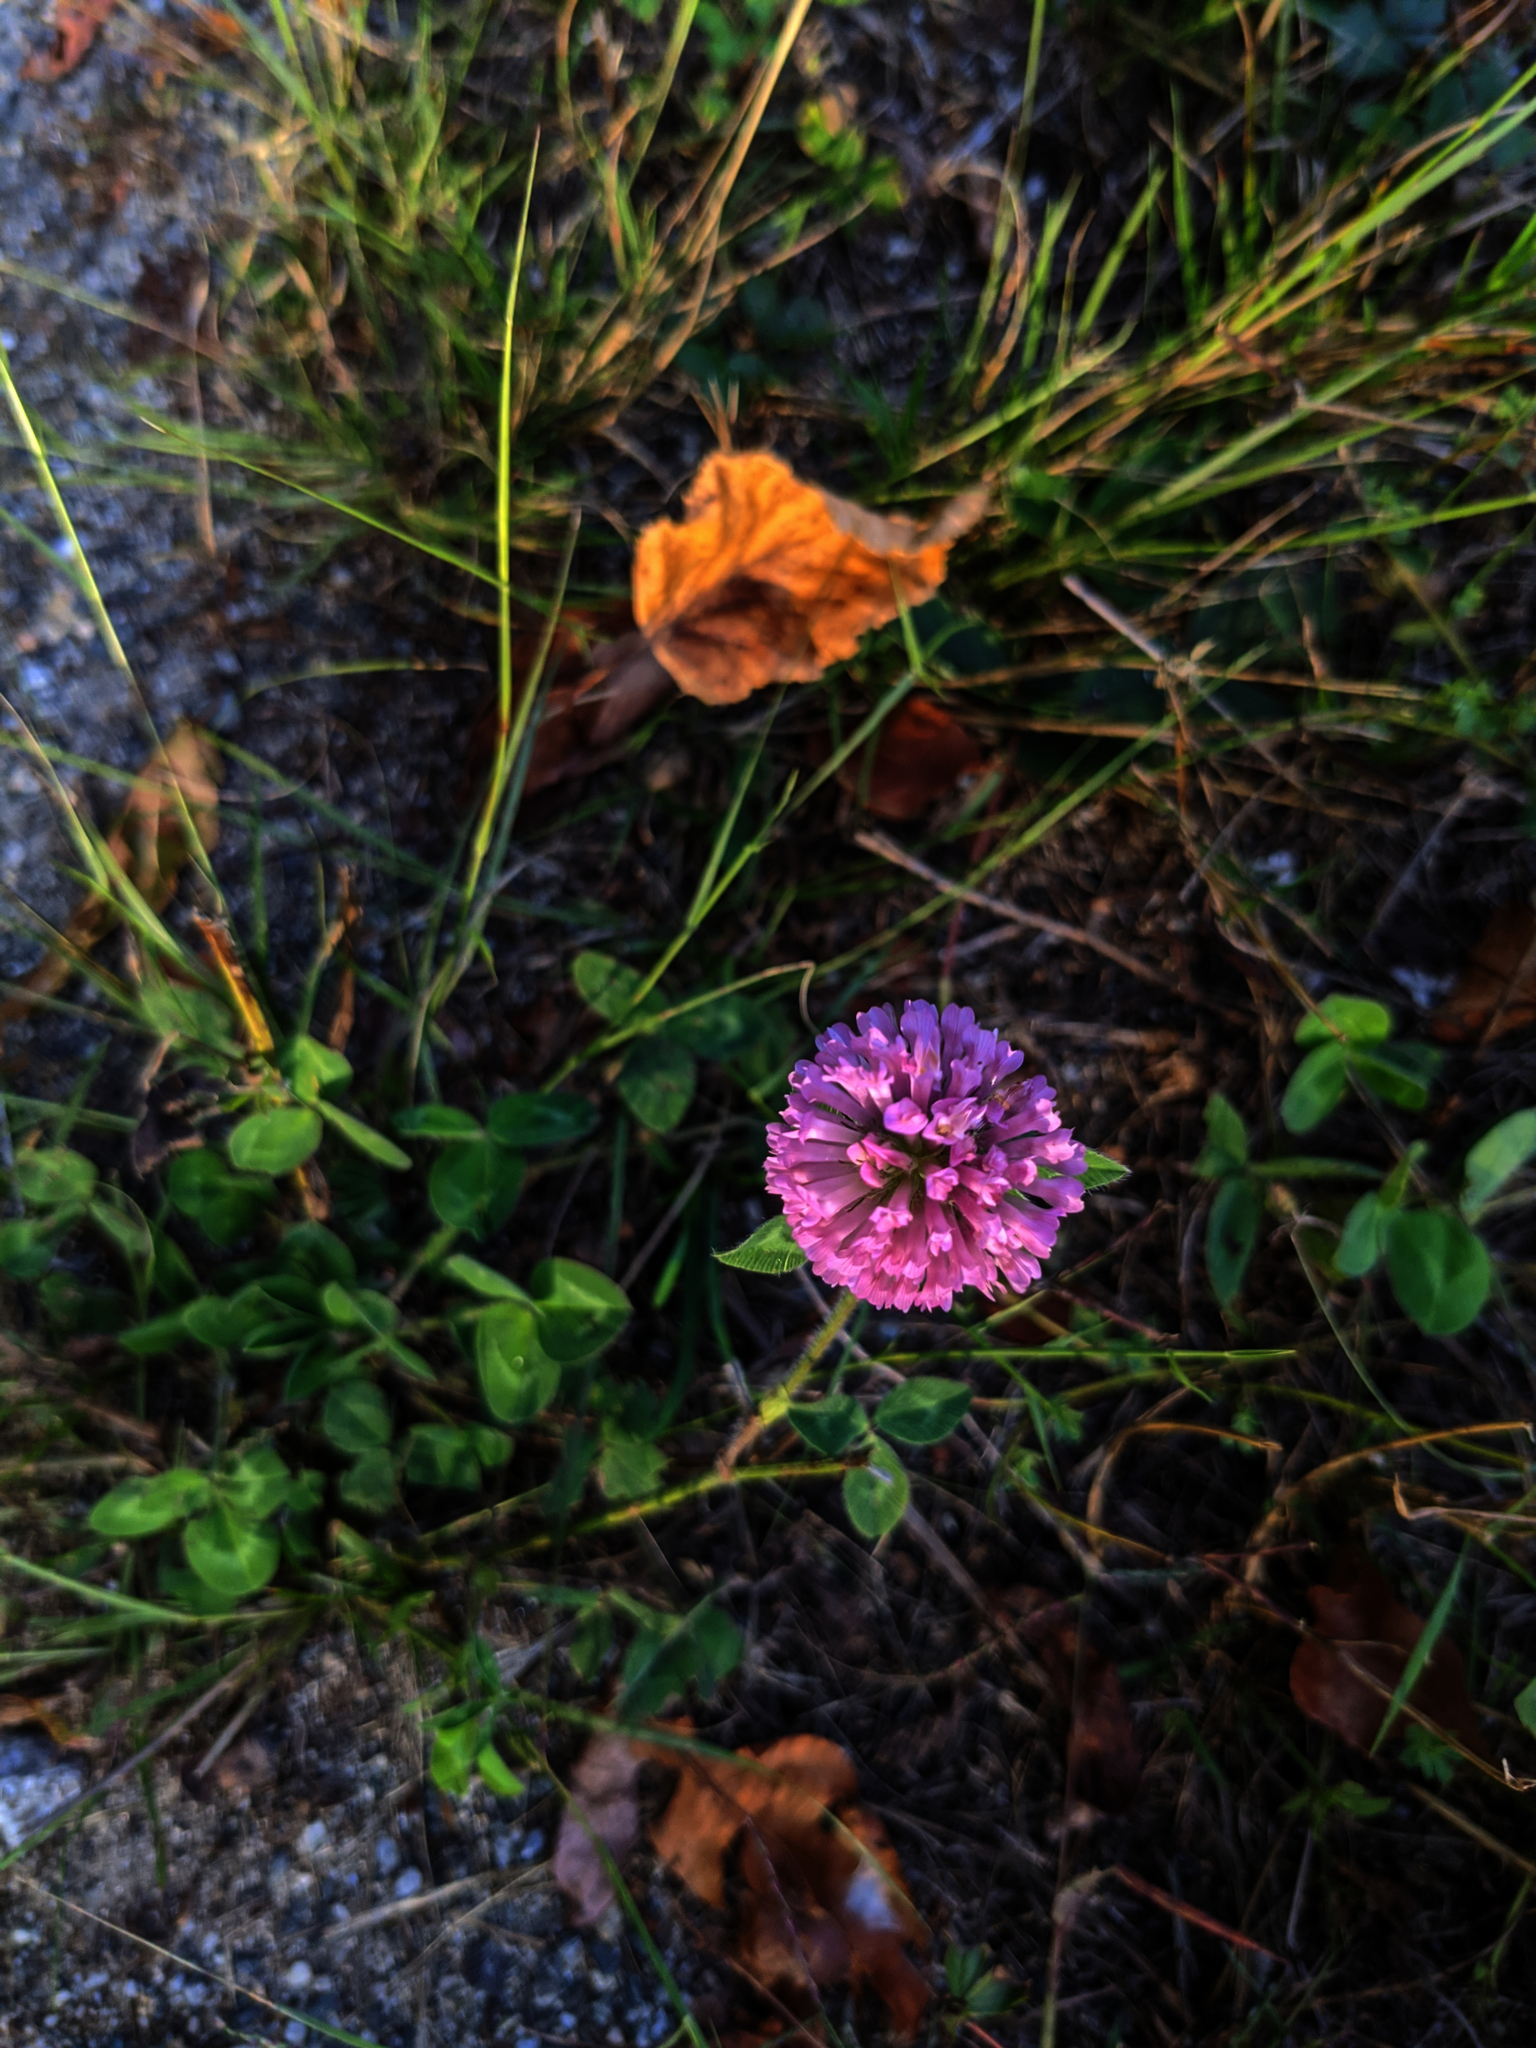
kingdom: Plantae
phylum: Tracheophyta
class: Magnoliopsida
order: Fabales
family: Fabaceae
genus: Trifolium
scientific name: Trifolium pratense
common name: Red clover
